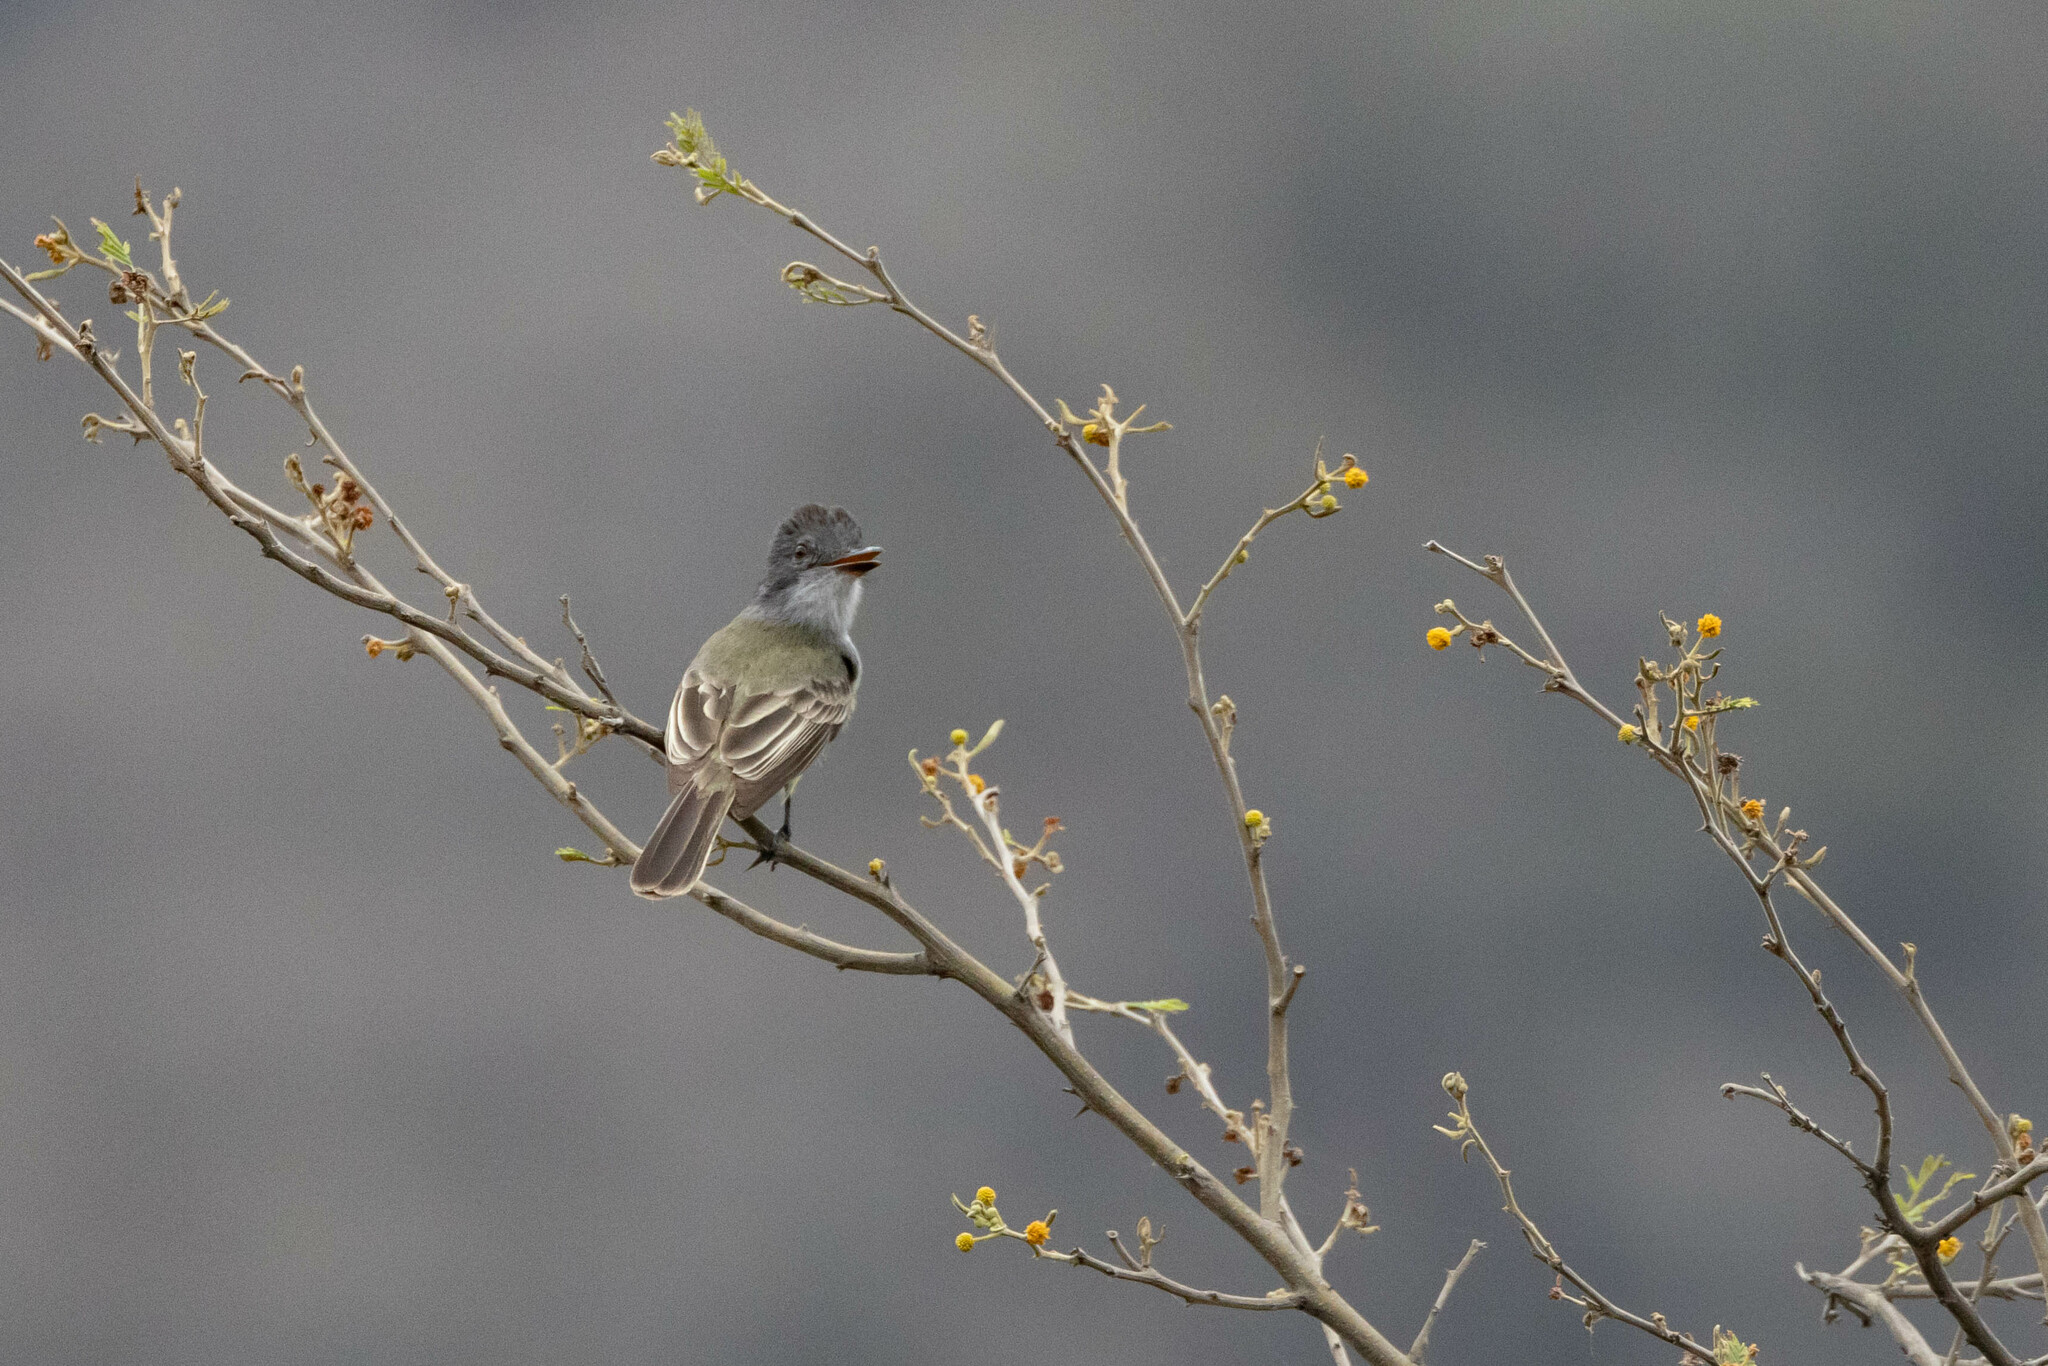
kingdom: Animalia
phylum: Chordata
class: Aves
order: Passeriformes
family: Tyrannidae
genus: Myiarchus
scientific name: Myiarchus phaeocephalus
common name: Sooty-crowned flycatcher
